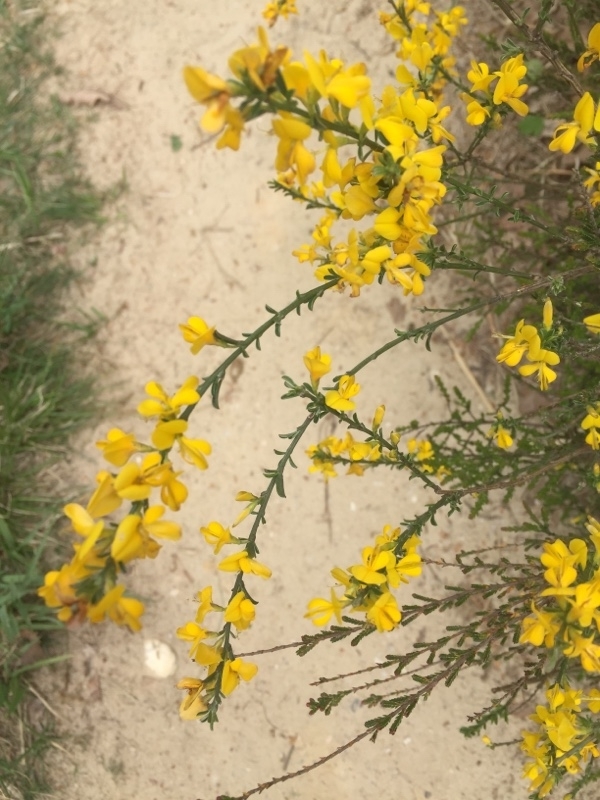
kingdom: Plantae
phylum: Tracheophyta
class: Magnoliopsida
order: Fabales
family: Fabaceae
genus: Genista
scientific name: Genista pilosa
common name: Hairy greenweed
